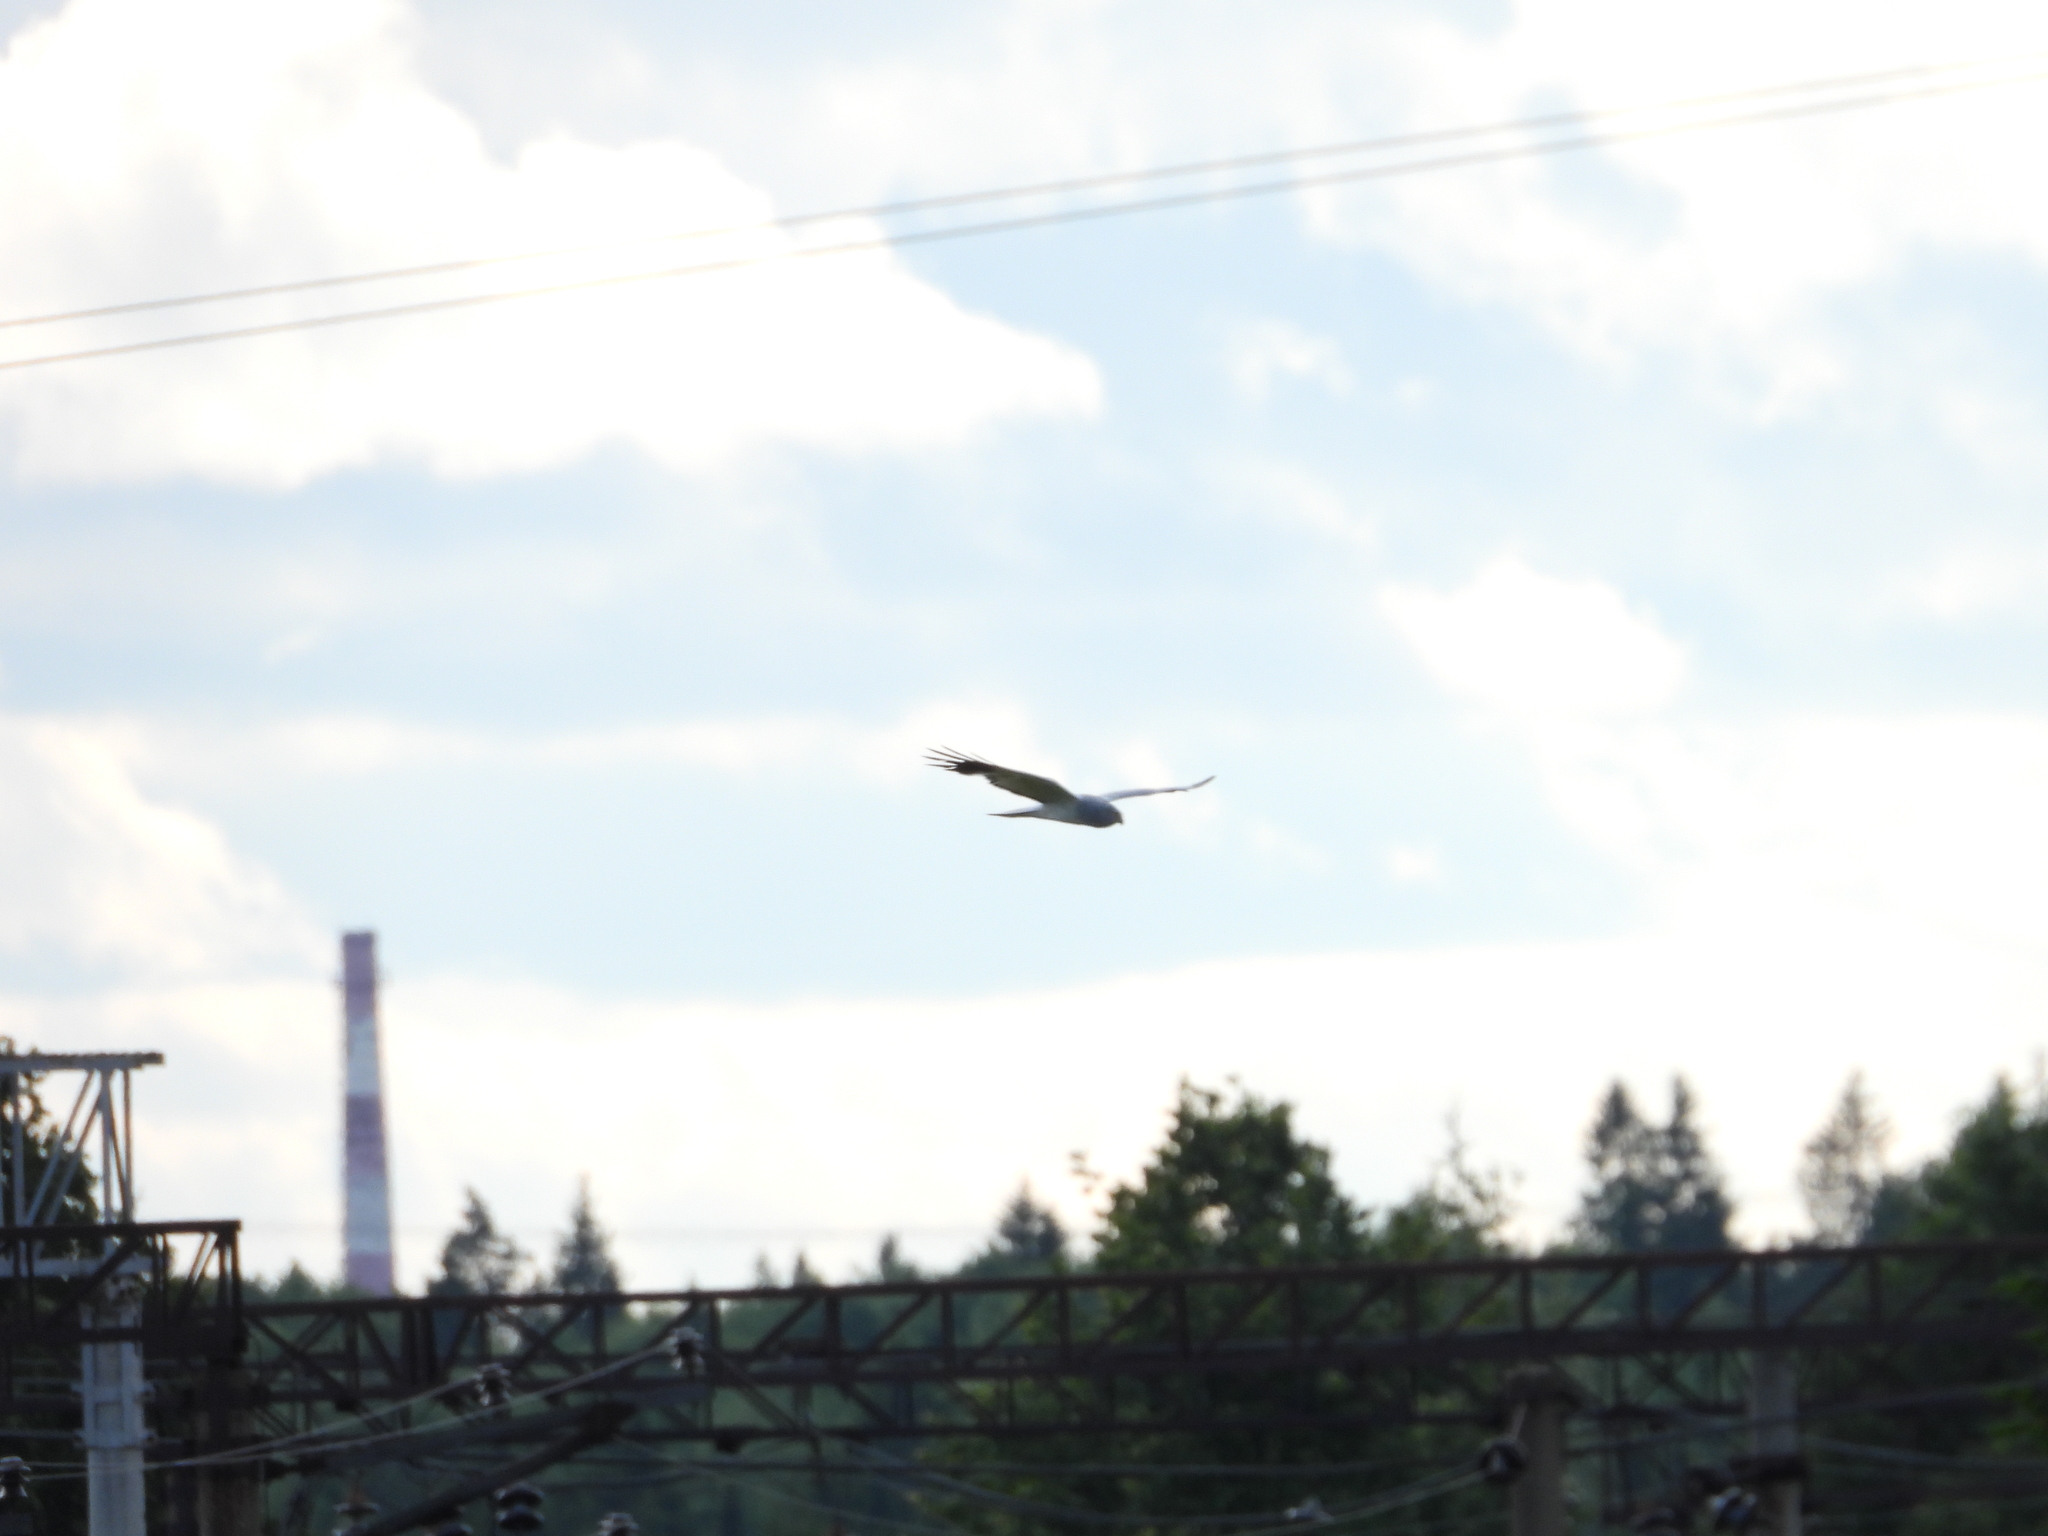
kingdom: Animalia
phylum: Chordata
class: Aves
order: Accipitriformes
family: Accipitridae
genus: Circus
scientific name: Circus cyaneus
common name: Hen harrier
